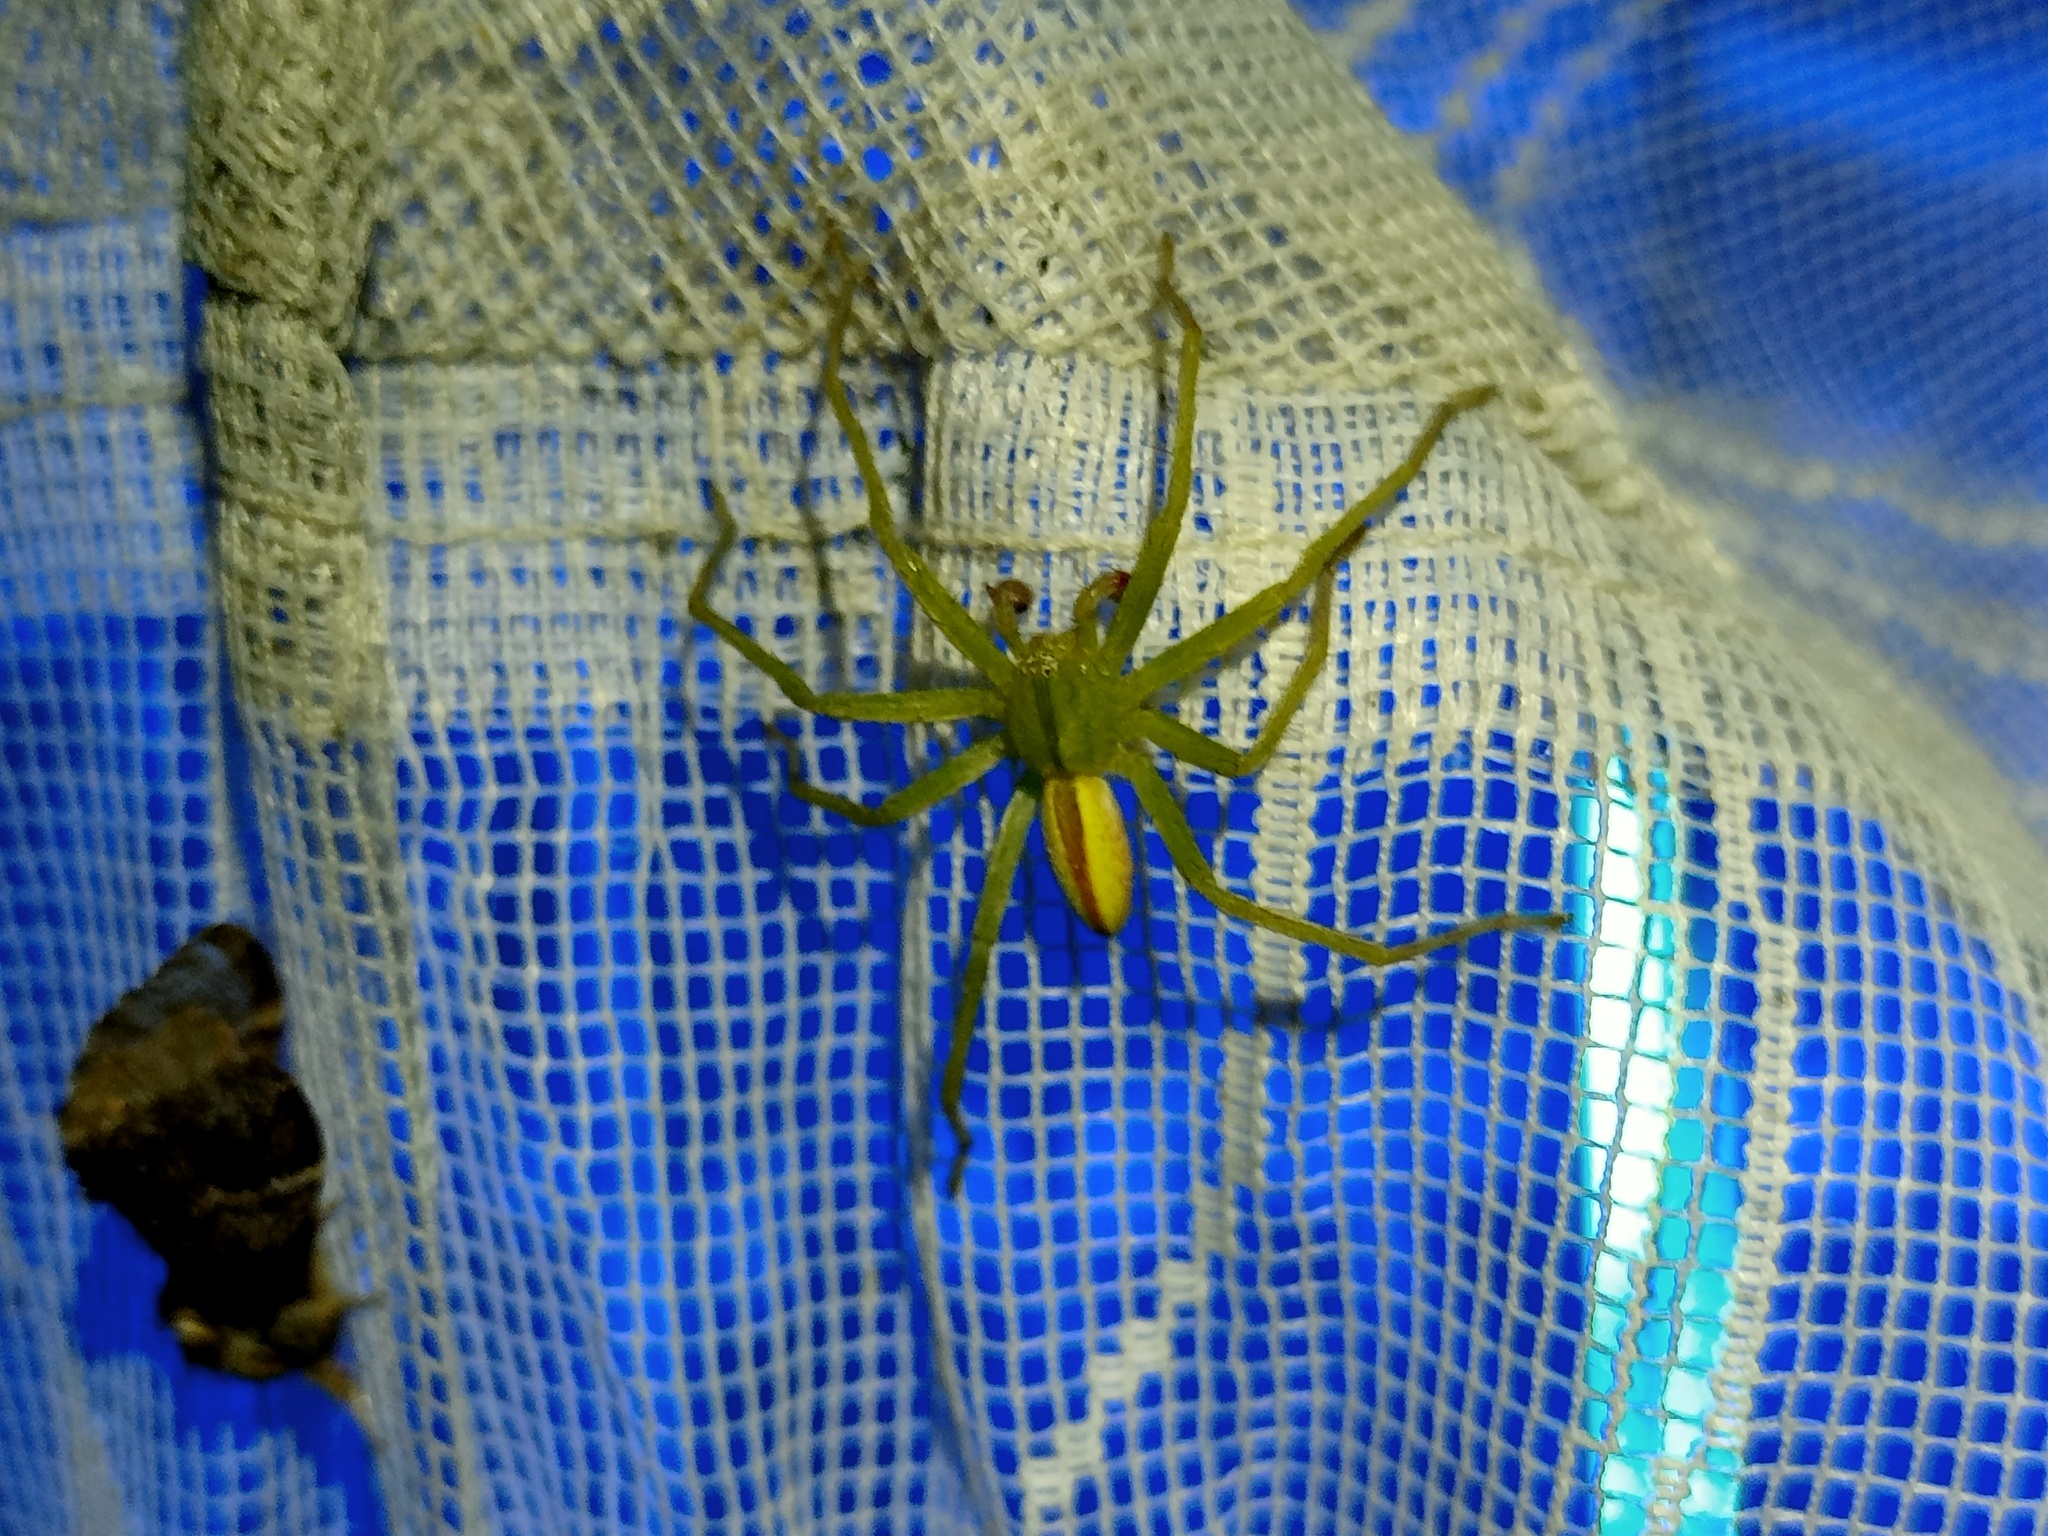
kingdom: Animalia
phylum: Arthropoda
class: Arachnida
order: Araneae
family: Sparassidae
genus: Micrommata
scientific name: Micrommata virescens
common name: Green spider
